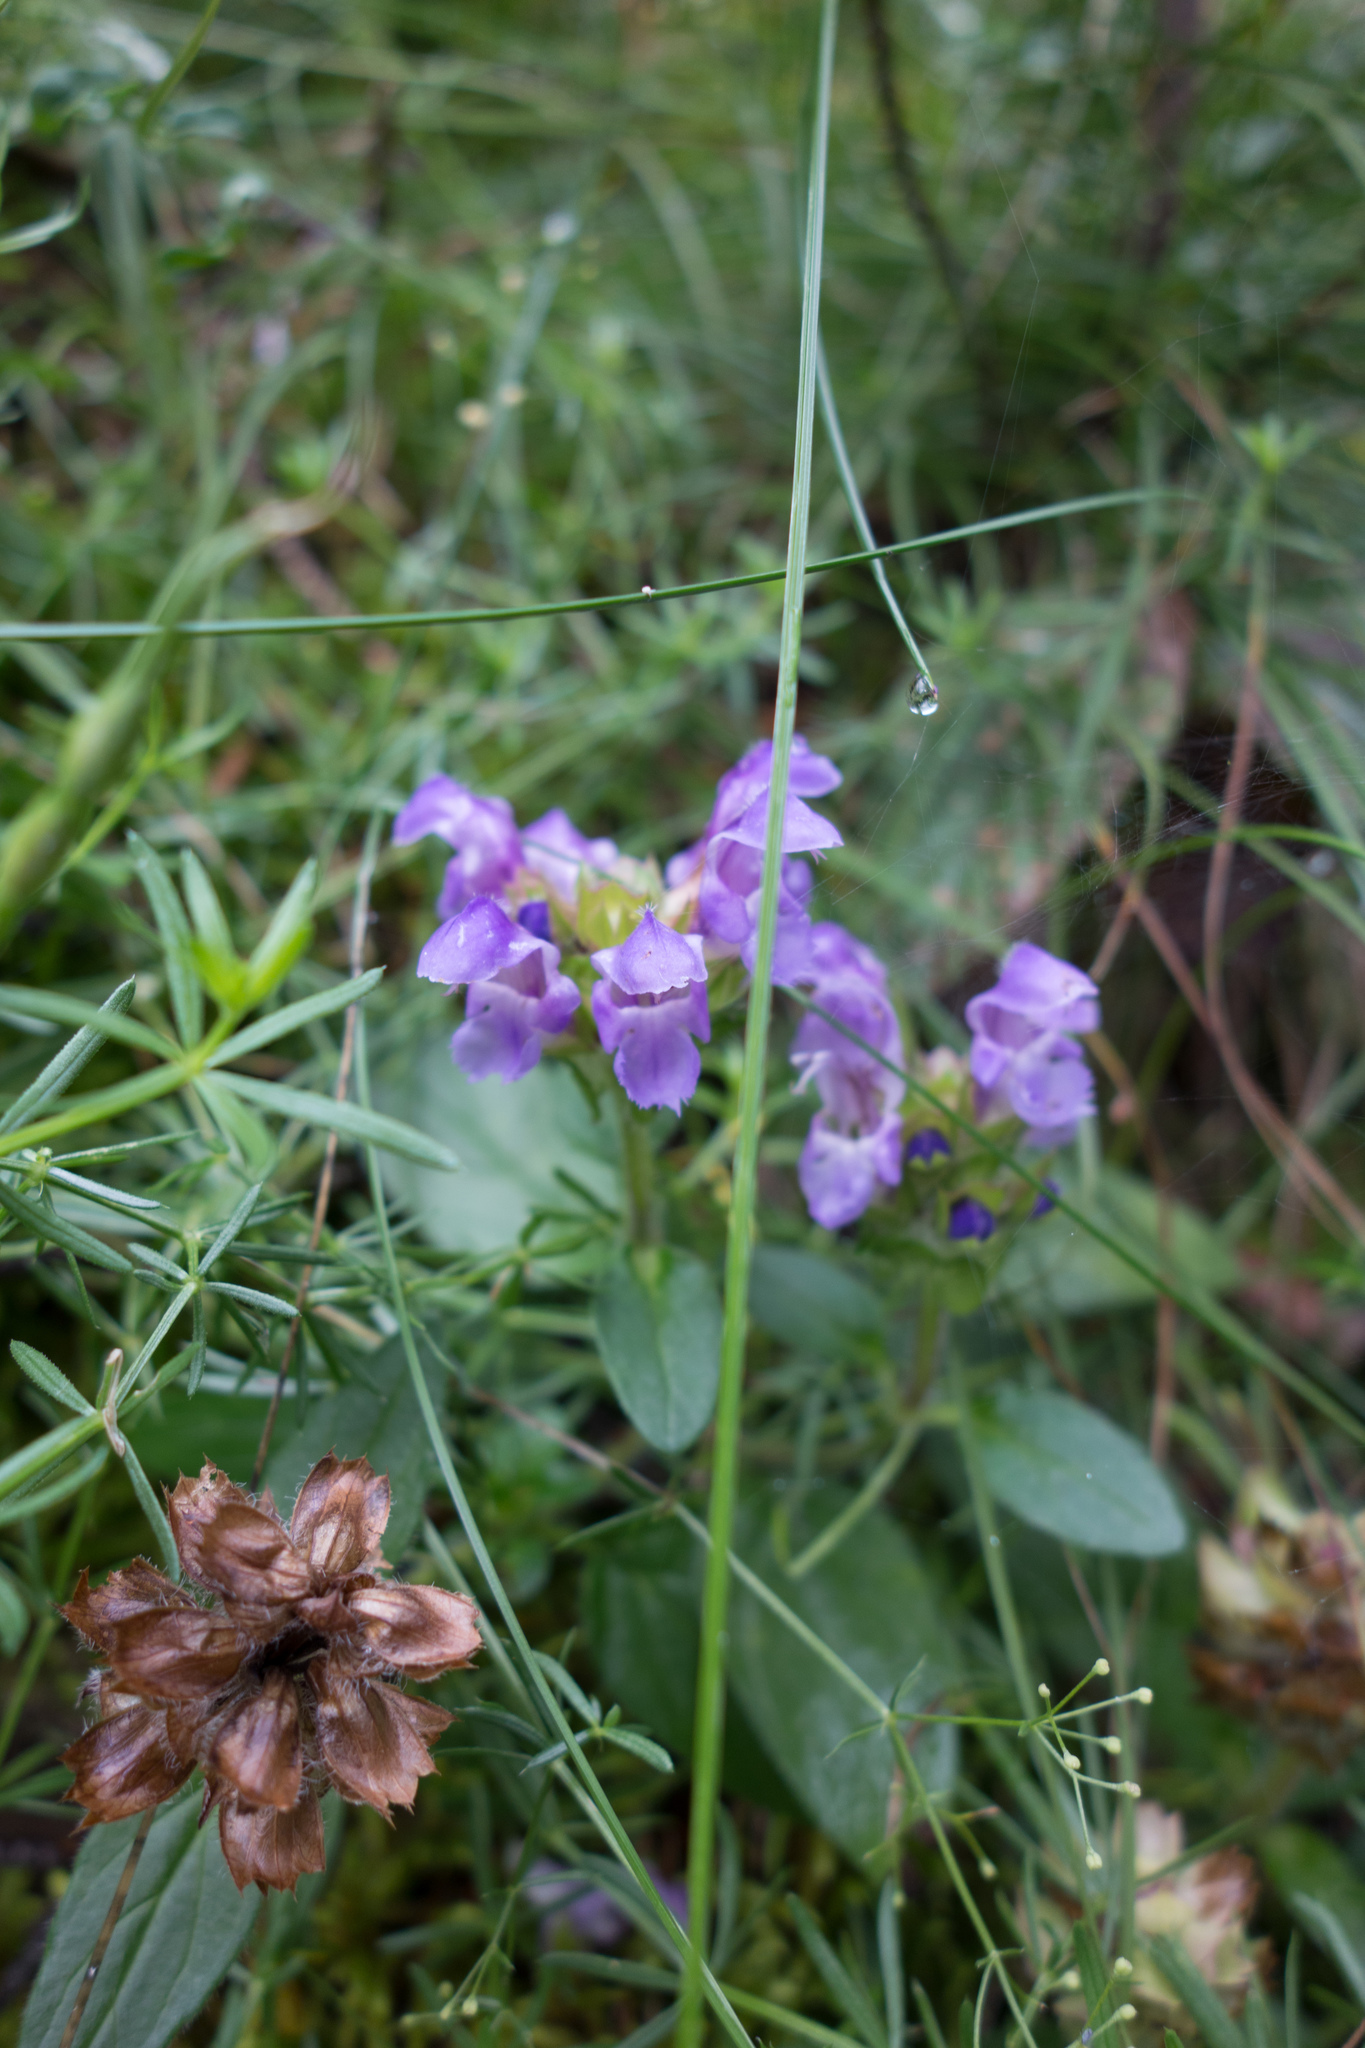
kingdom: Plantae
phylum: Tracheophyta
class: Magnoliopsida
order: Lamiales
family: Lamiaceae
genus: Prunella
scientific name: Prunella grandiflora
